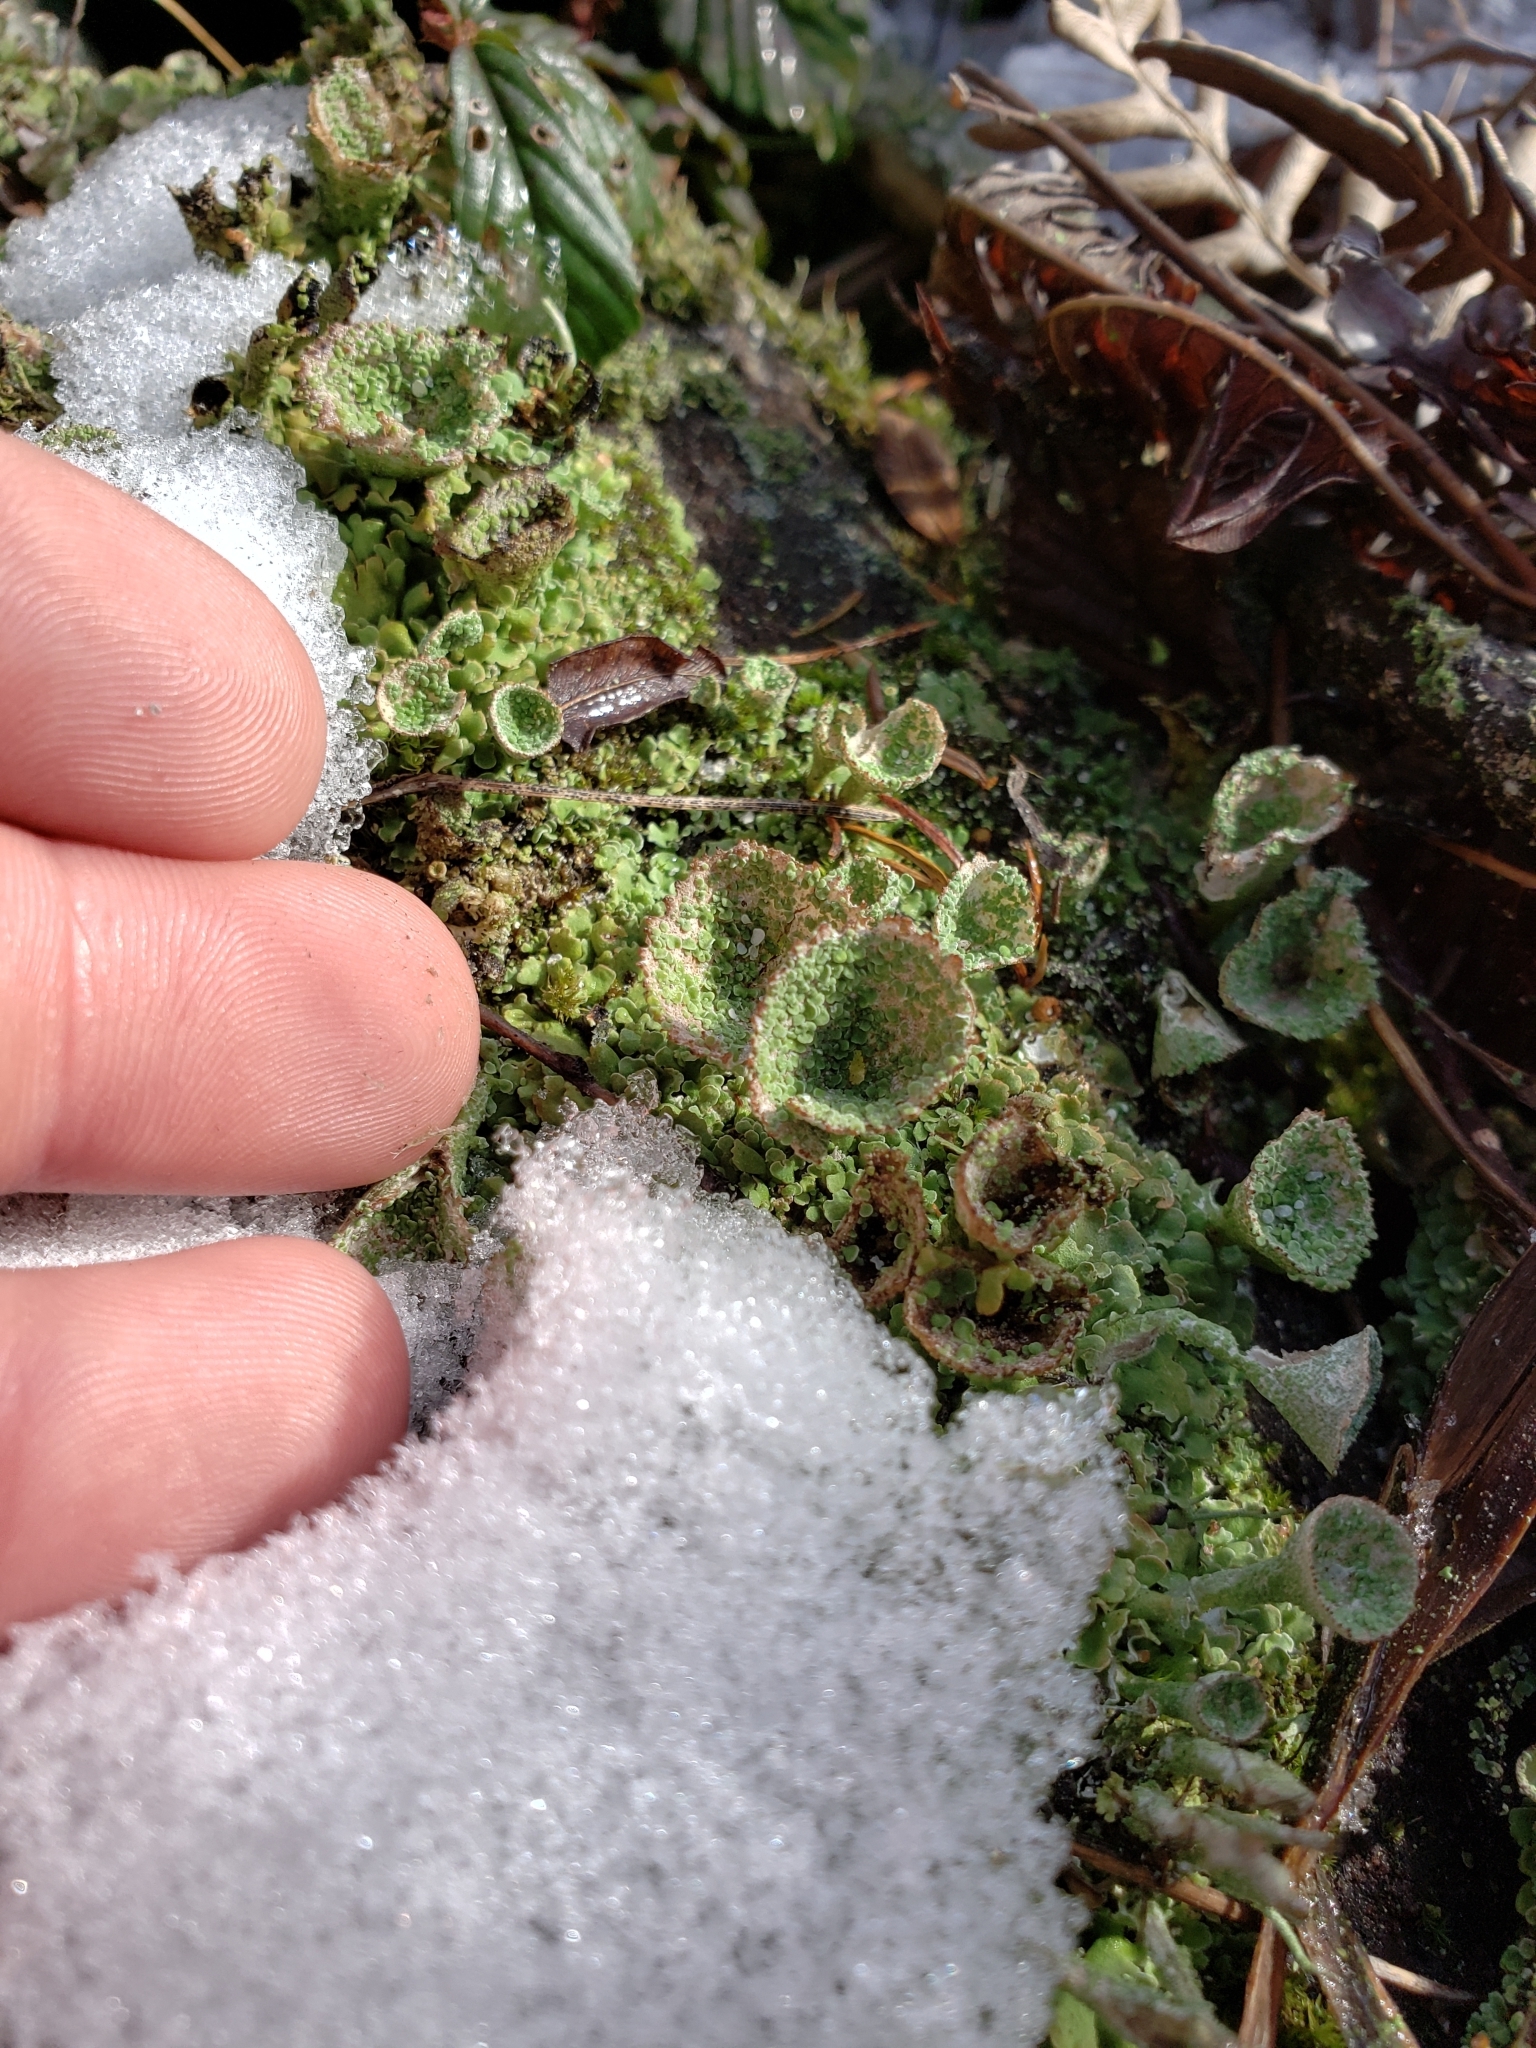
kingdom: Fungi
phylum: Ascomycota
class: Lecanoromycetes
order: Lecanorales
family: Cladoniaceae
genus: Cladonia
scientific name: Cladonia pyxidata
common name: Pebbled pixie cup
